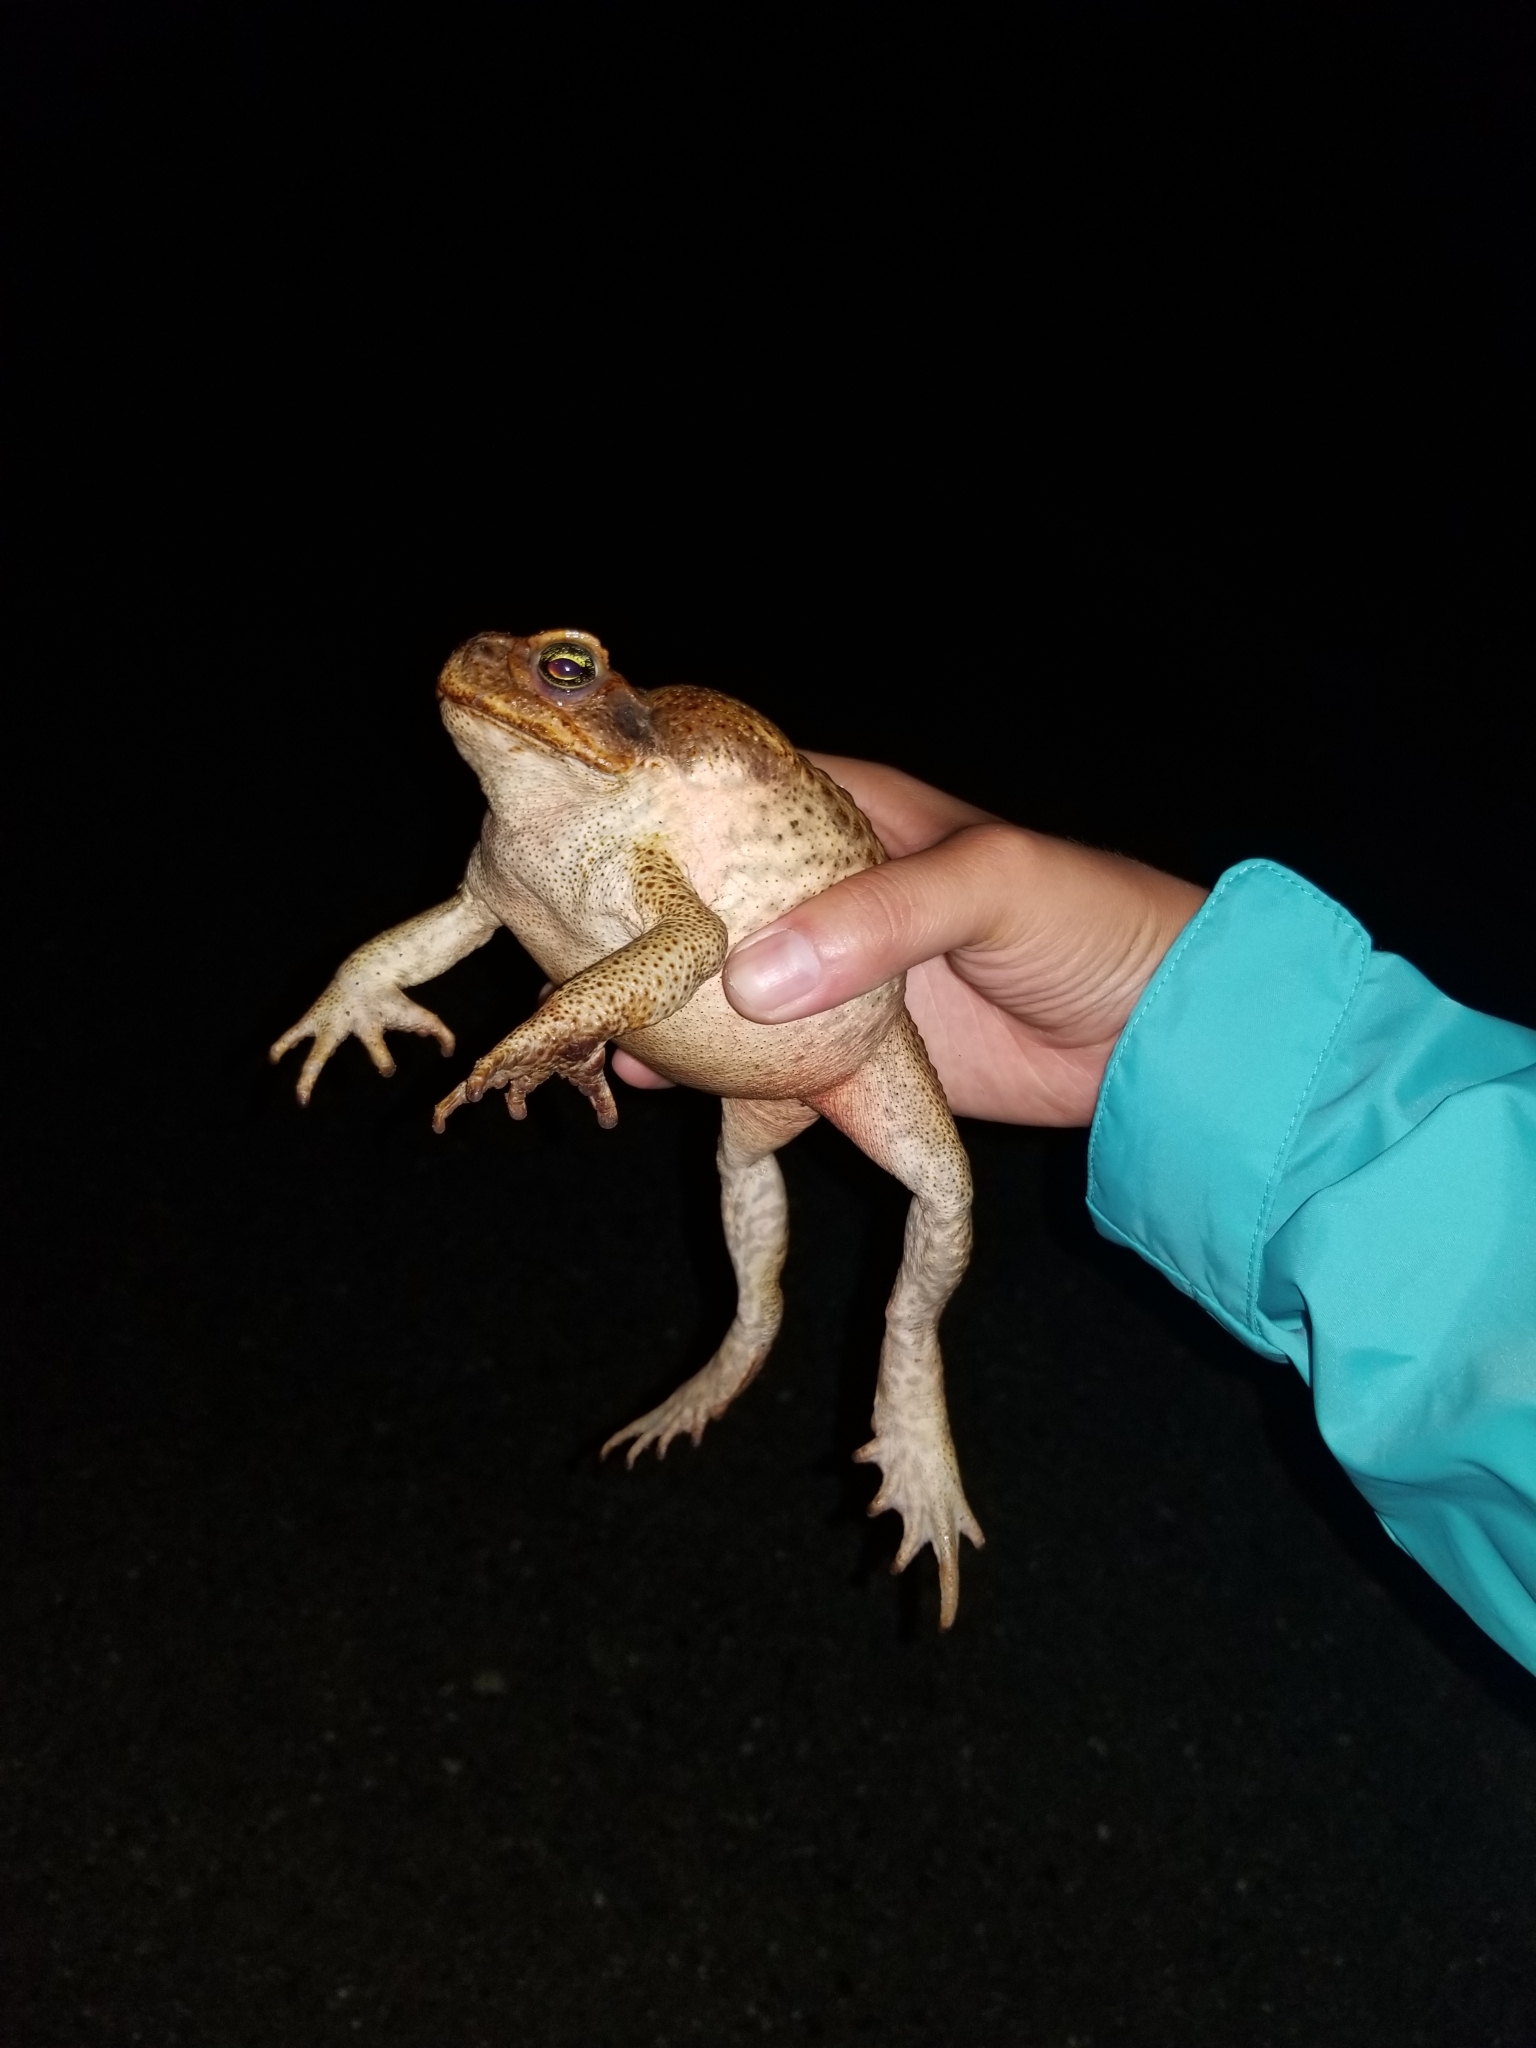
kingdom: Animalia
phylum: Chordata
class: Amphibia
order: Anura
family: Bufonidae
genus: Rhinella
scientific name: Rhinella marina
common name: Cane toad
